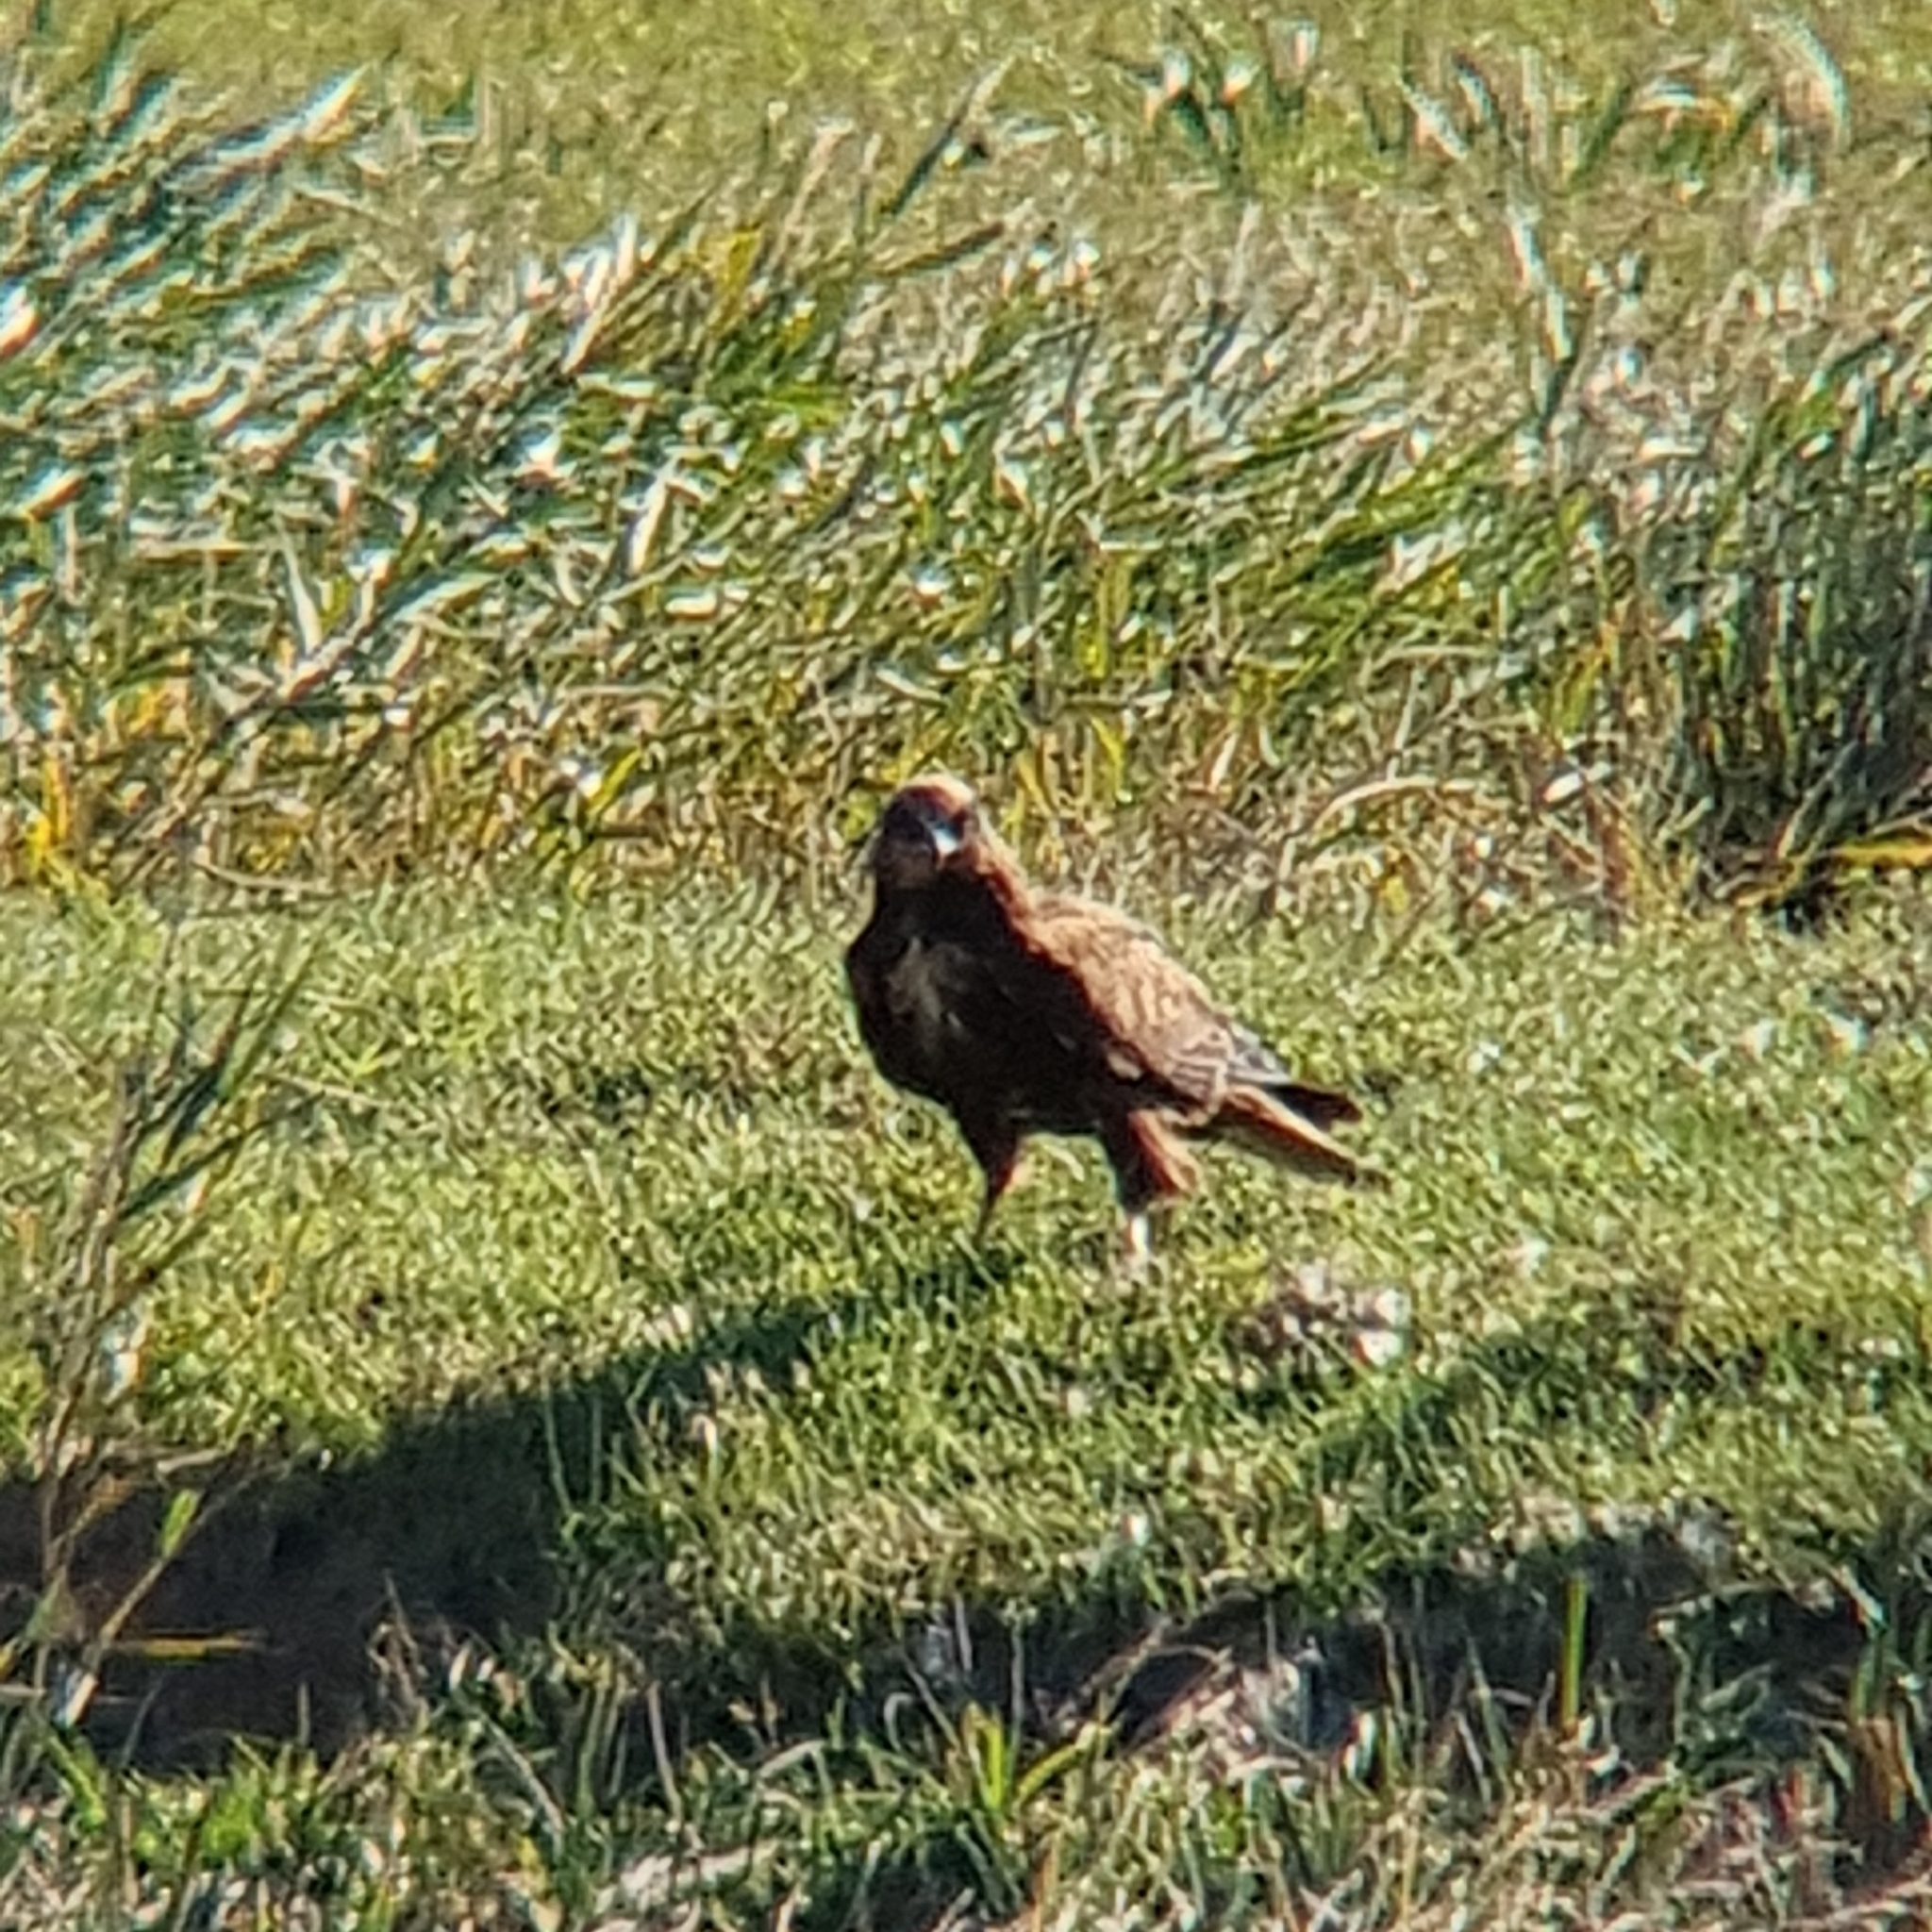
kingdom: Animalia
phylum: Chordata
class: Aves
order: Accipitriformes
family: Accipitridae
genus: Circus
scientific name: Circus aeruginosus
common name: Western marsh harrier
